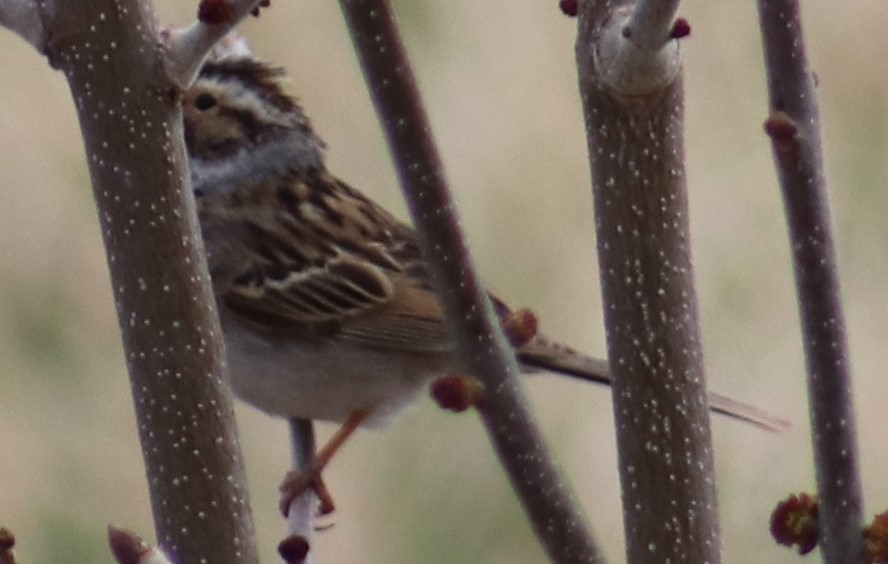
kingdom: Animalia
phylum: Chordata
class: Aves
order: Passeriformes
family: Passerellidae
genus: Spizella
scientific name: Spizella pallida
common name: Clay-colored sparrow
